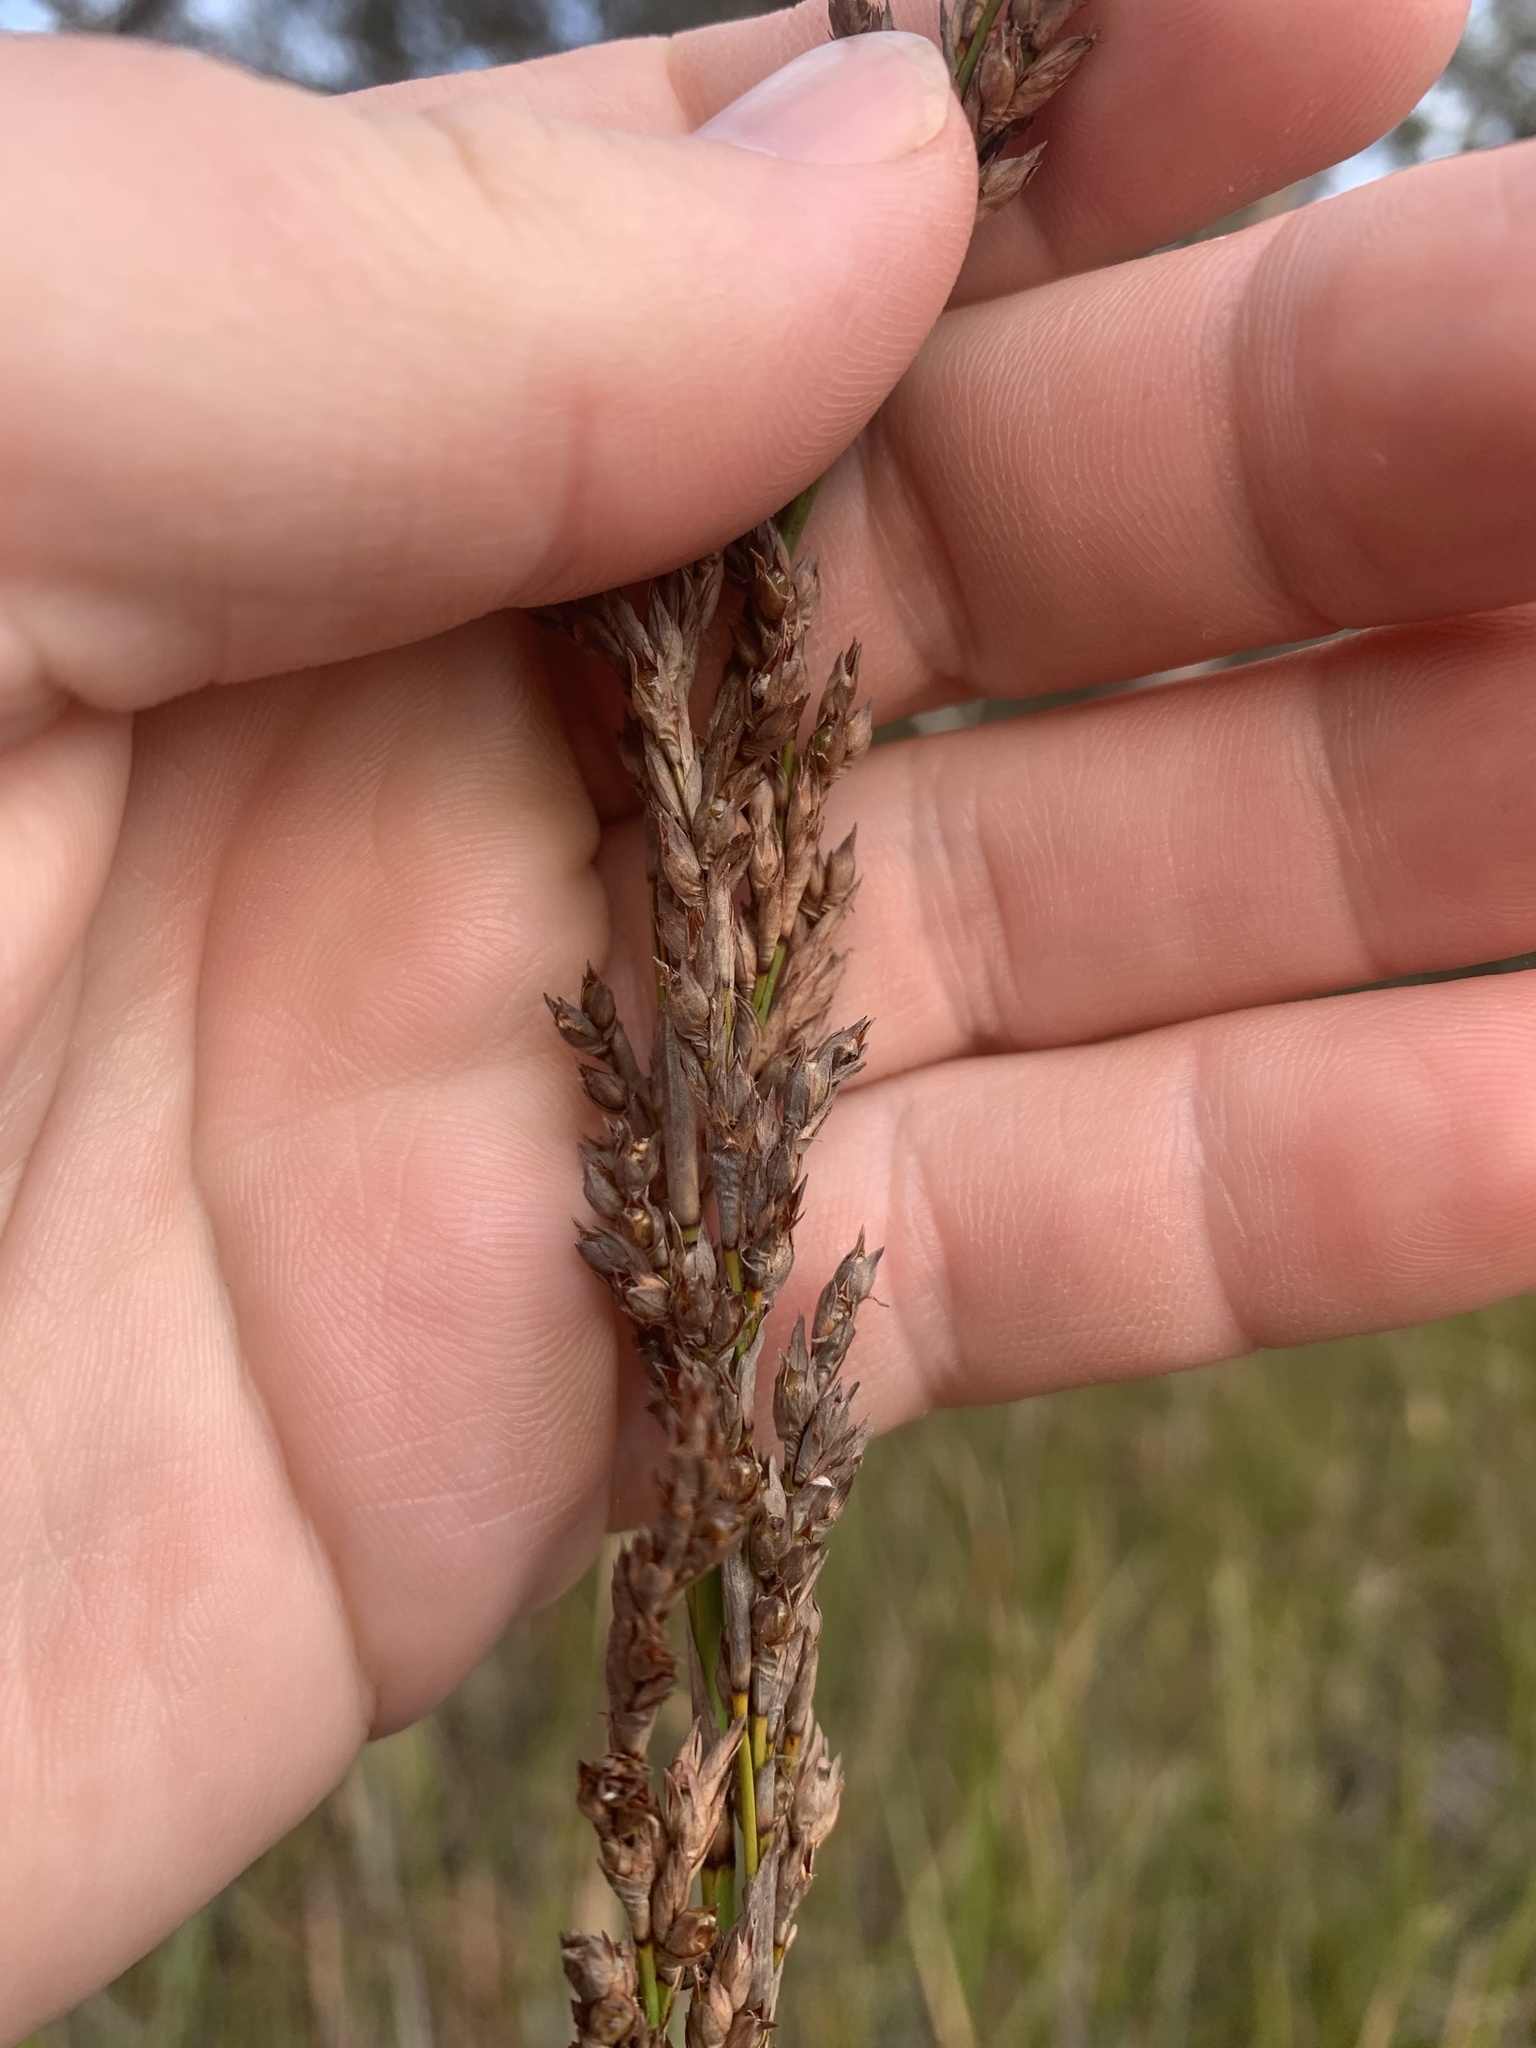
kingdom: Plantae
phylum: Tracheophyta
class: Liliopsida
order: Poales
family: Cyperaceae
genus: Lepidosperma
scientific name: Lepidosperma longitudinale
